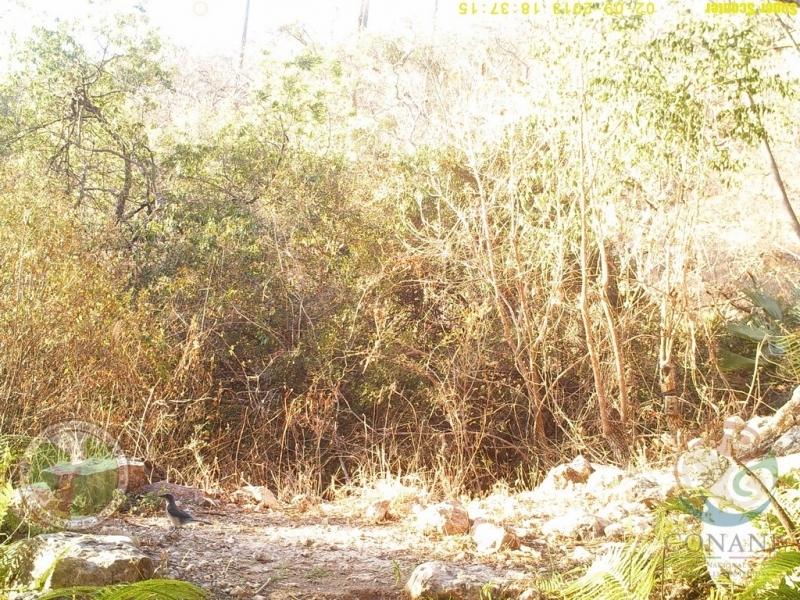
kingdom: Animalia
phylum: Chordata
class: Aves
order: Passeriformes
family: Corvidae
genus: Aphelocoma
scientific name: Aphelocoma woodhouseii
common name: Woodhouse's scrub-jay
